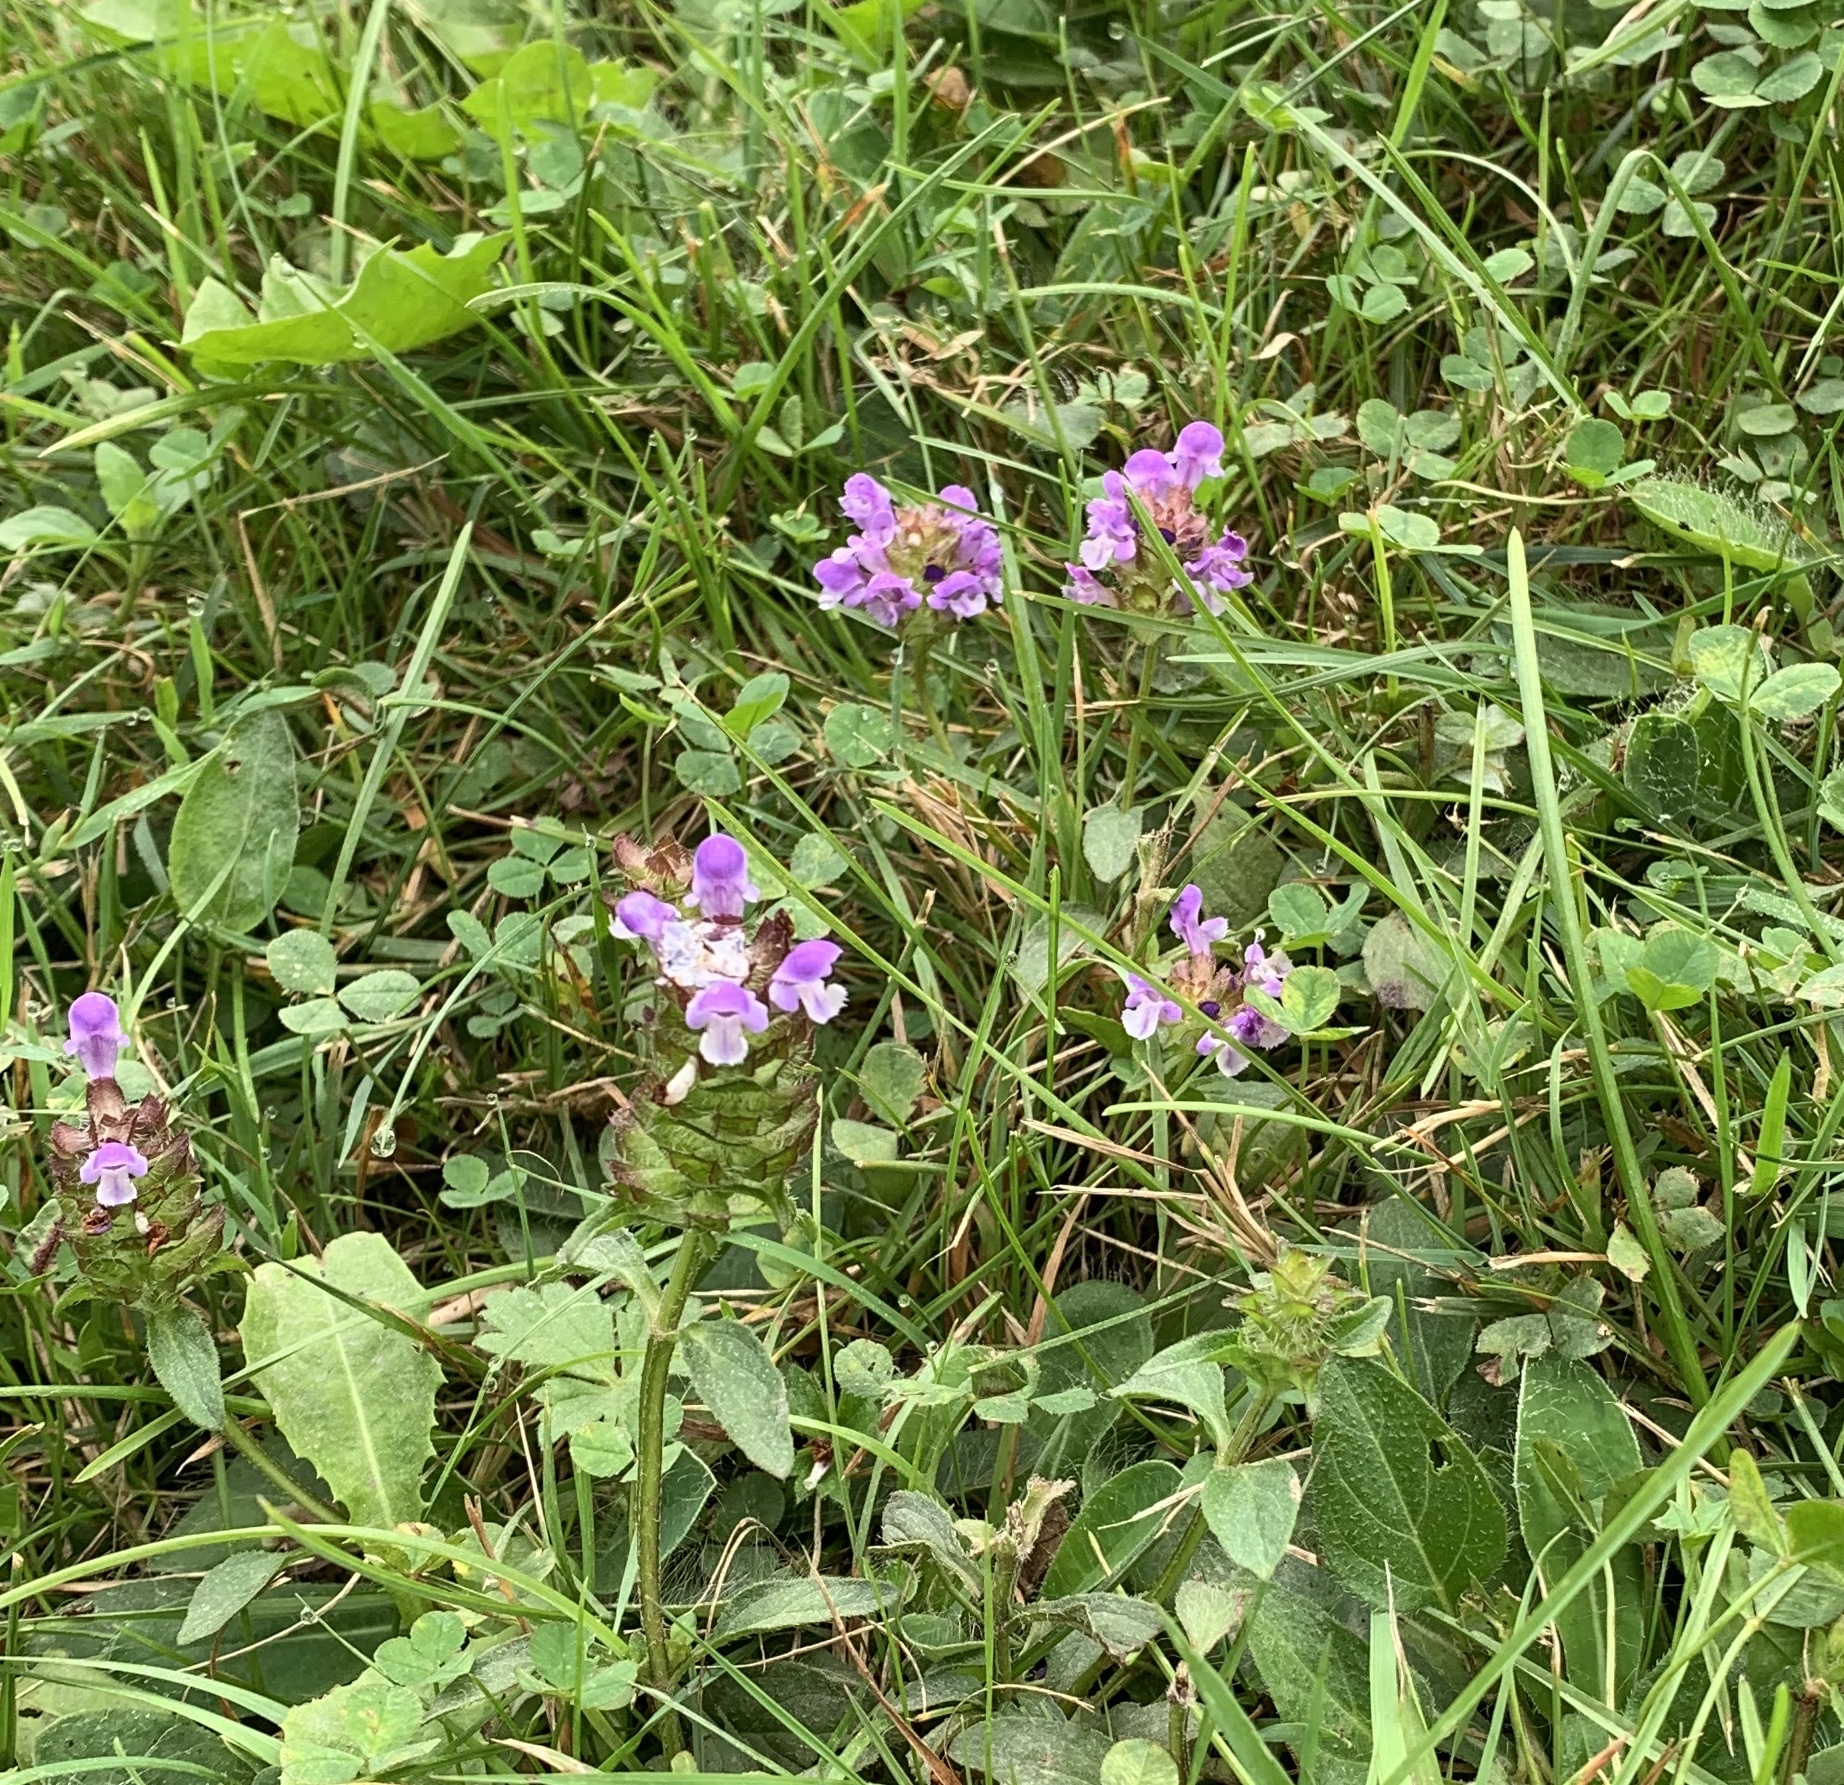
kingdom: Plantae
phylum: Tracheophyta
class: Magnoliopsida
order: Lamiales
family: Lamiaceae
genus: Prunella
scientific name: Prunella vulgaris
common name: Heal-all
